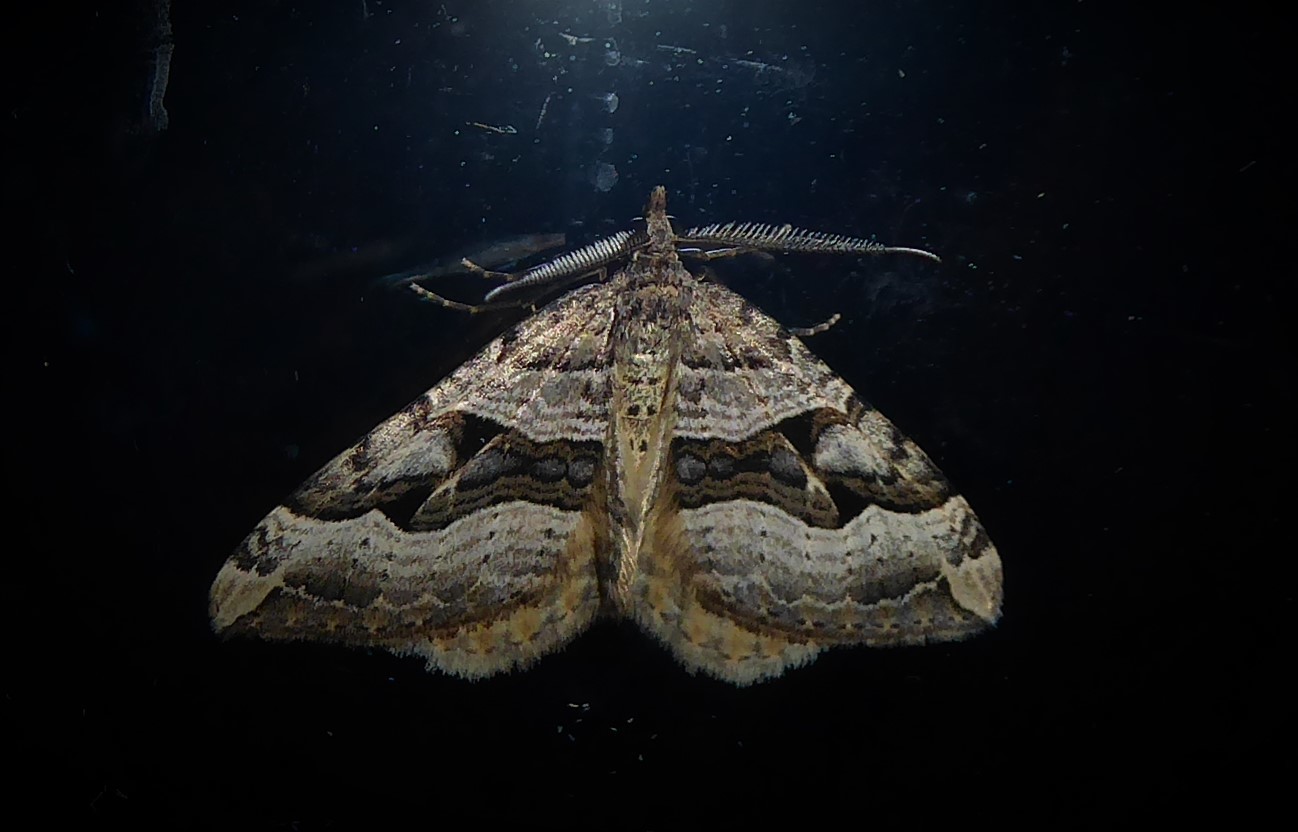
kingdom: Animalia
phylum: Arthropoda
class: Insecta
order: Lepidoptera
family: Geometridae
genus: Xanthorhoe
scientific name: Xanthorhoe semifissata
